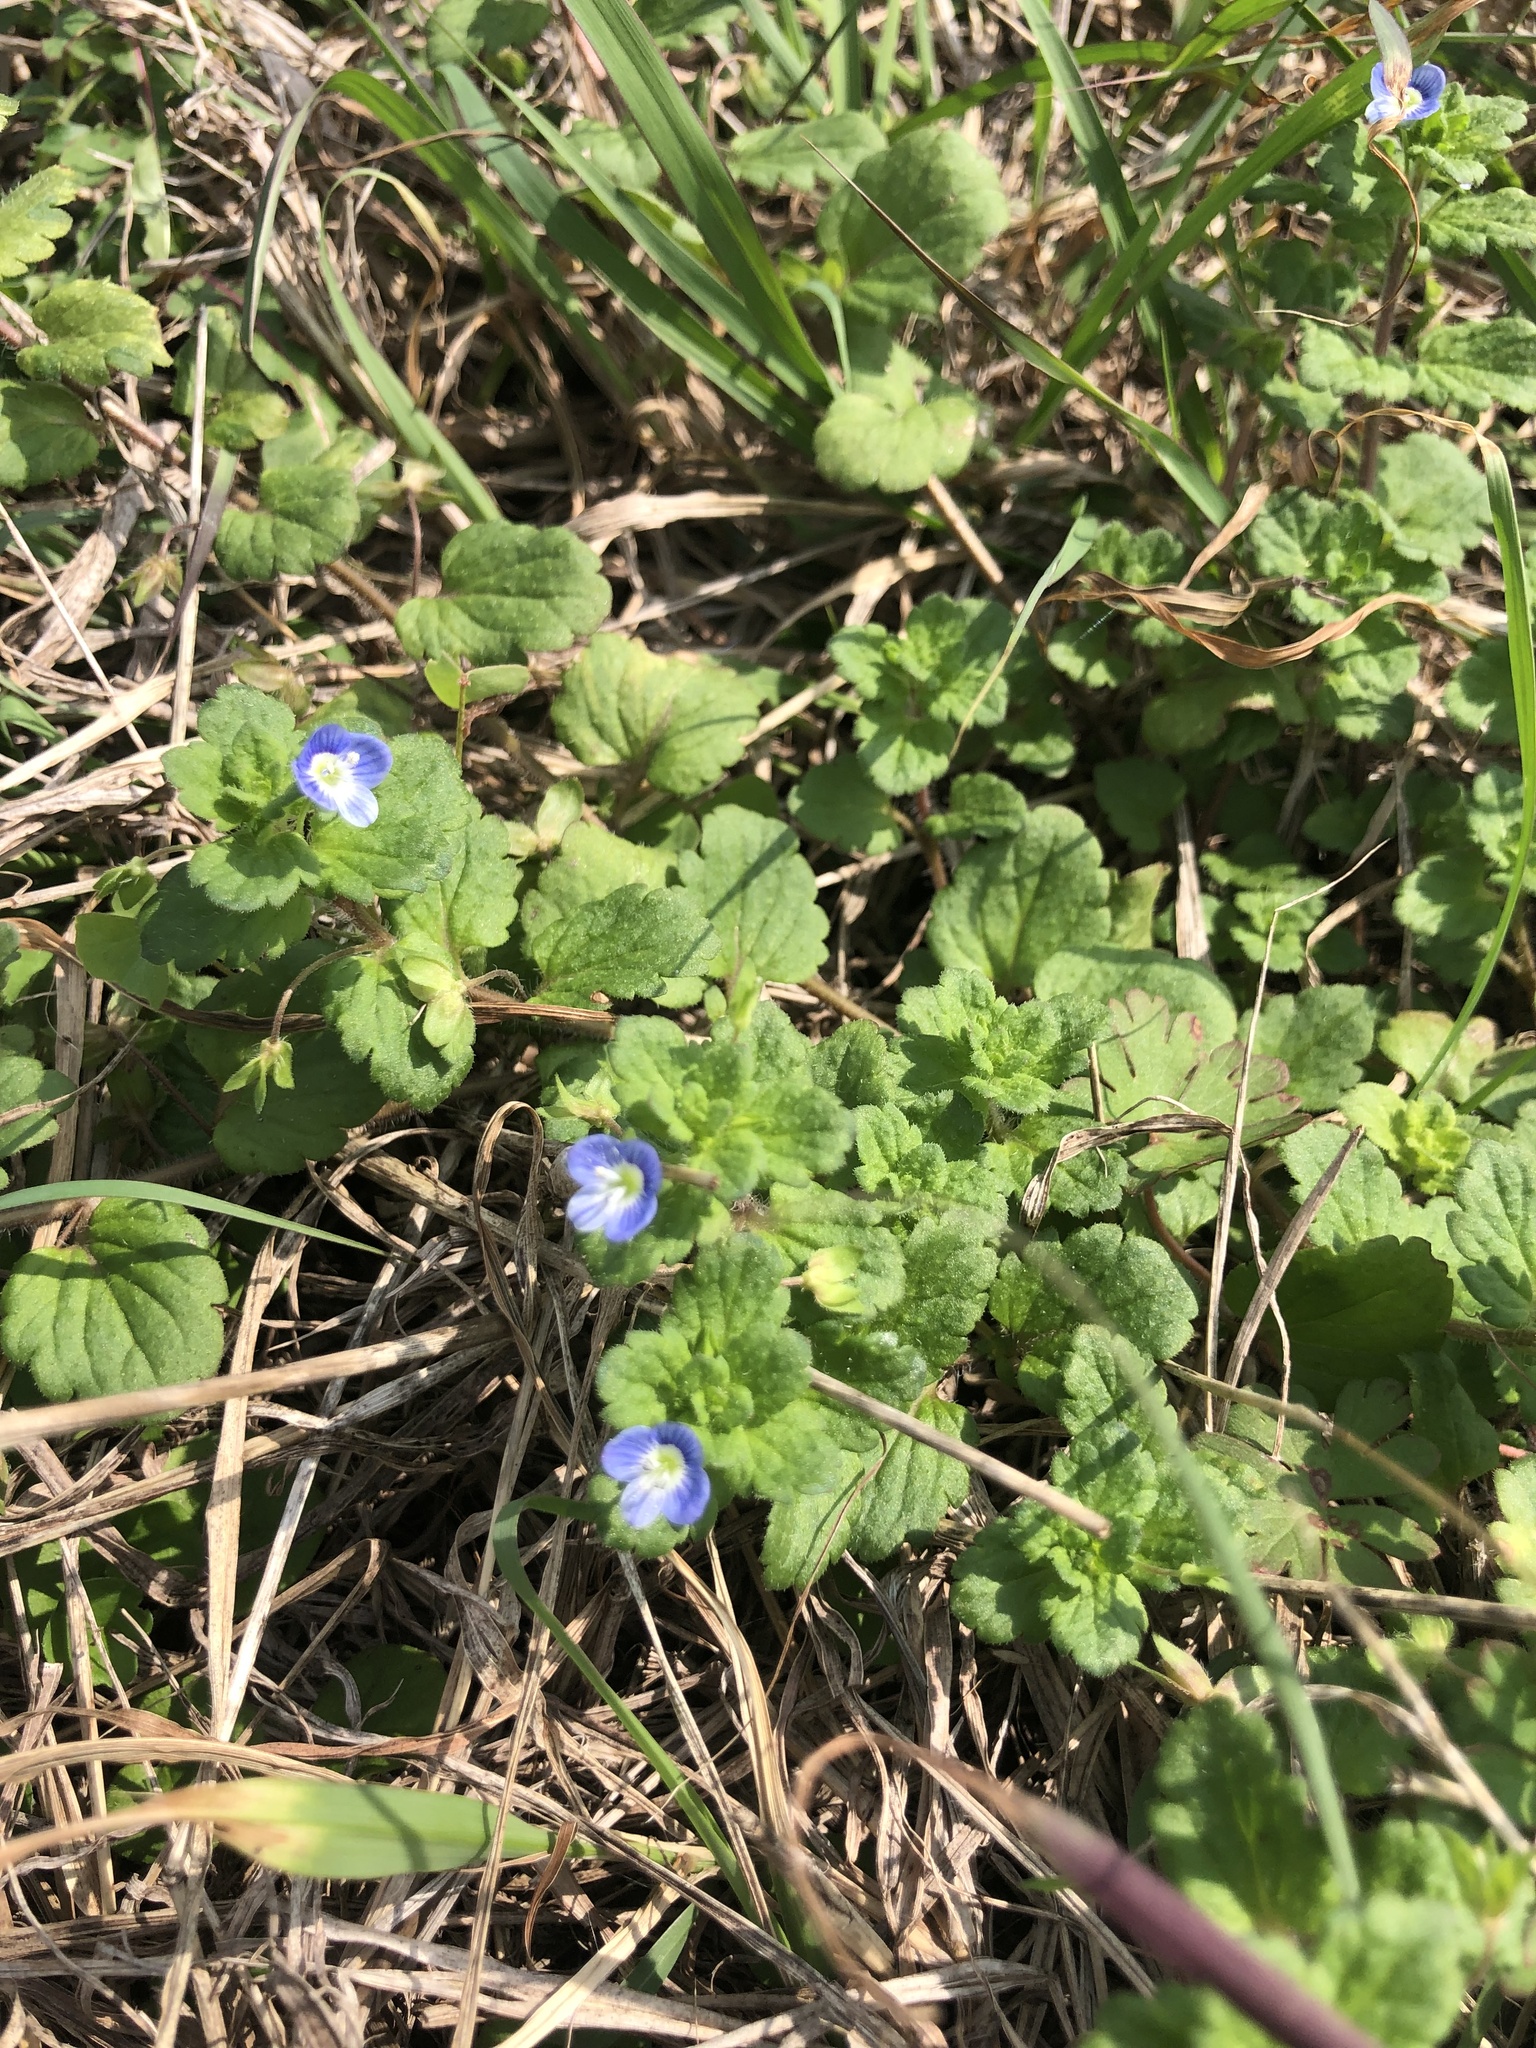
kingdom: Plantae
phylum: Tracheophyta
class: Magnoliopsida
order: Lamiales
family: Plantaginaceae
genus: Veronica
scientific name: Veronica persica
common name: Common field-speedwell
